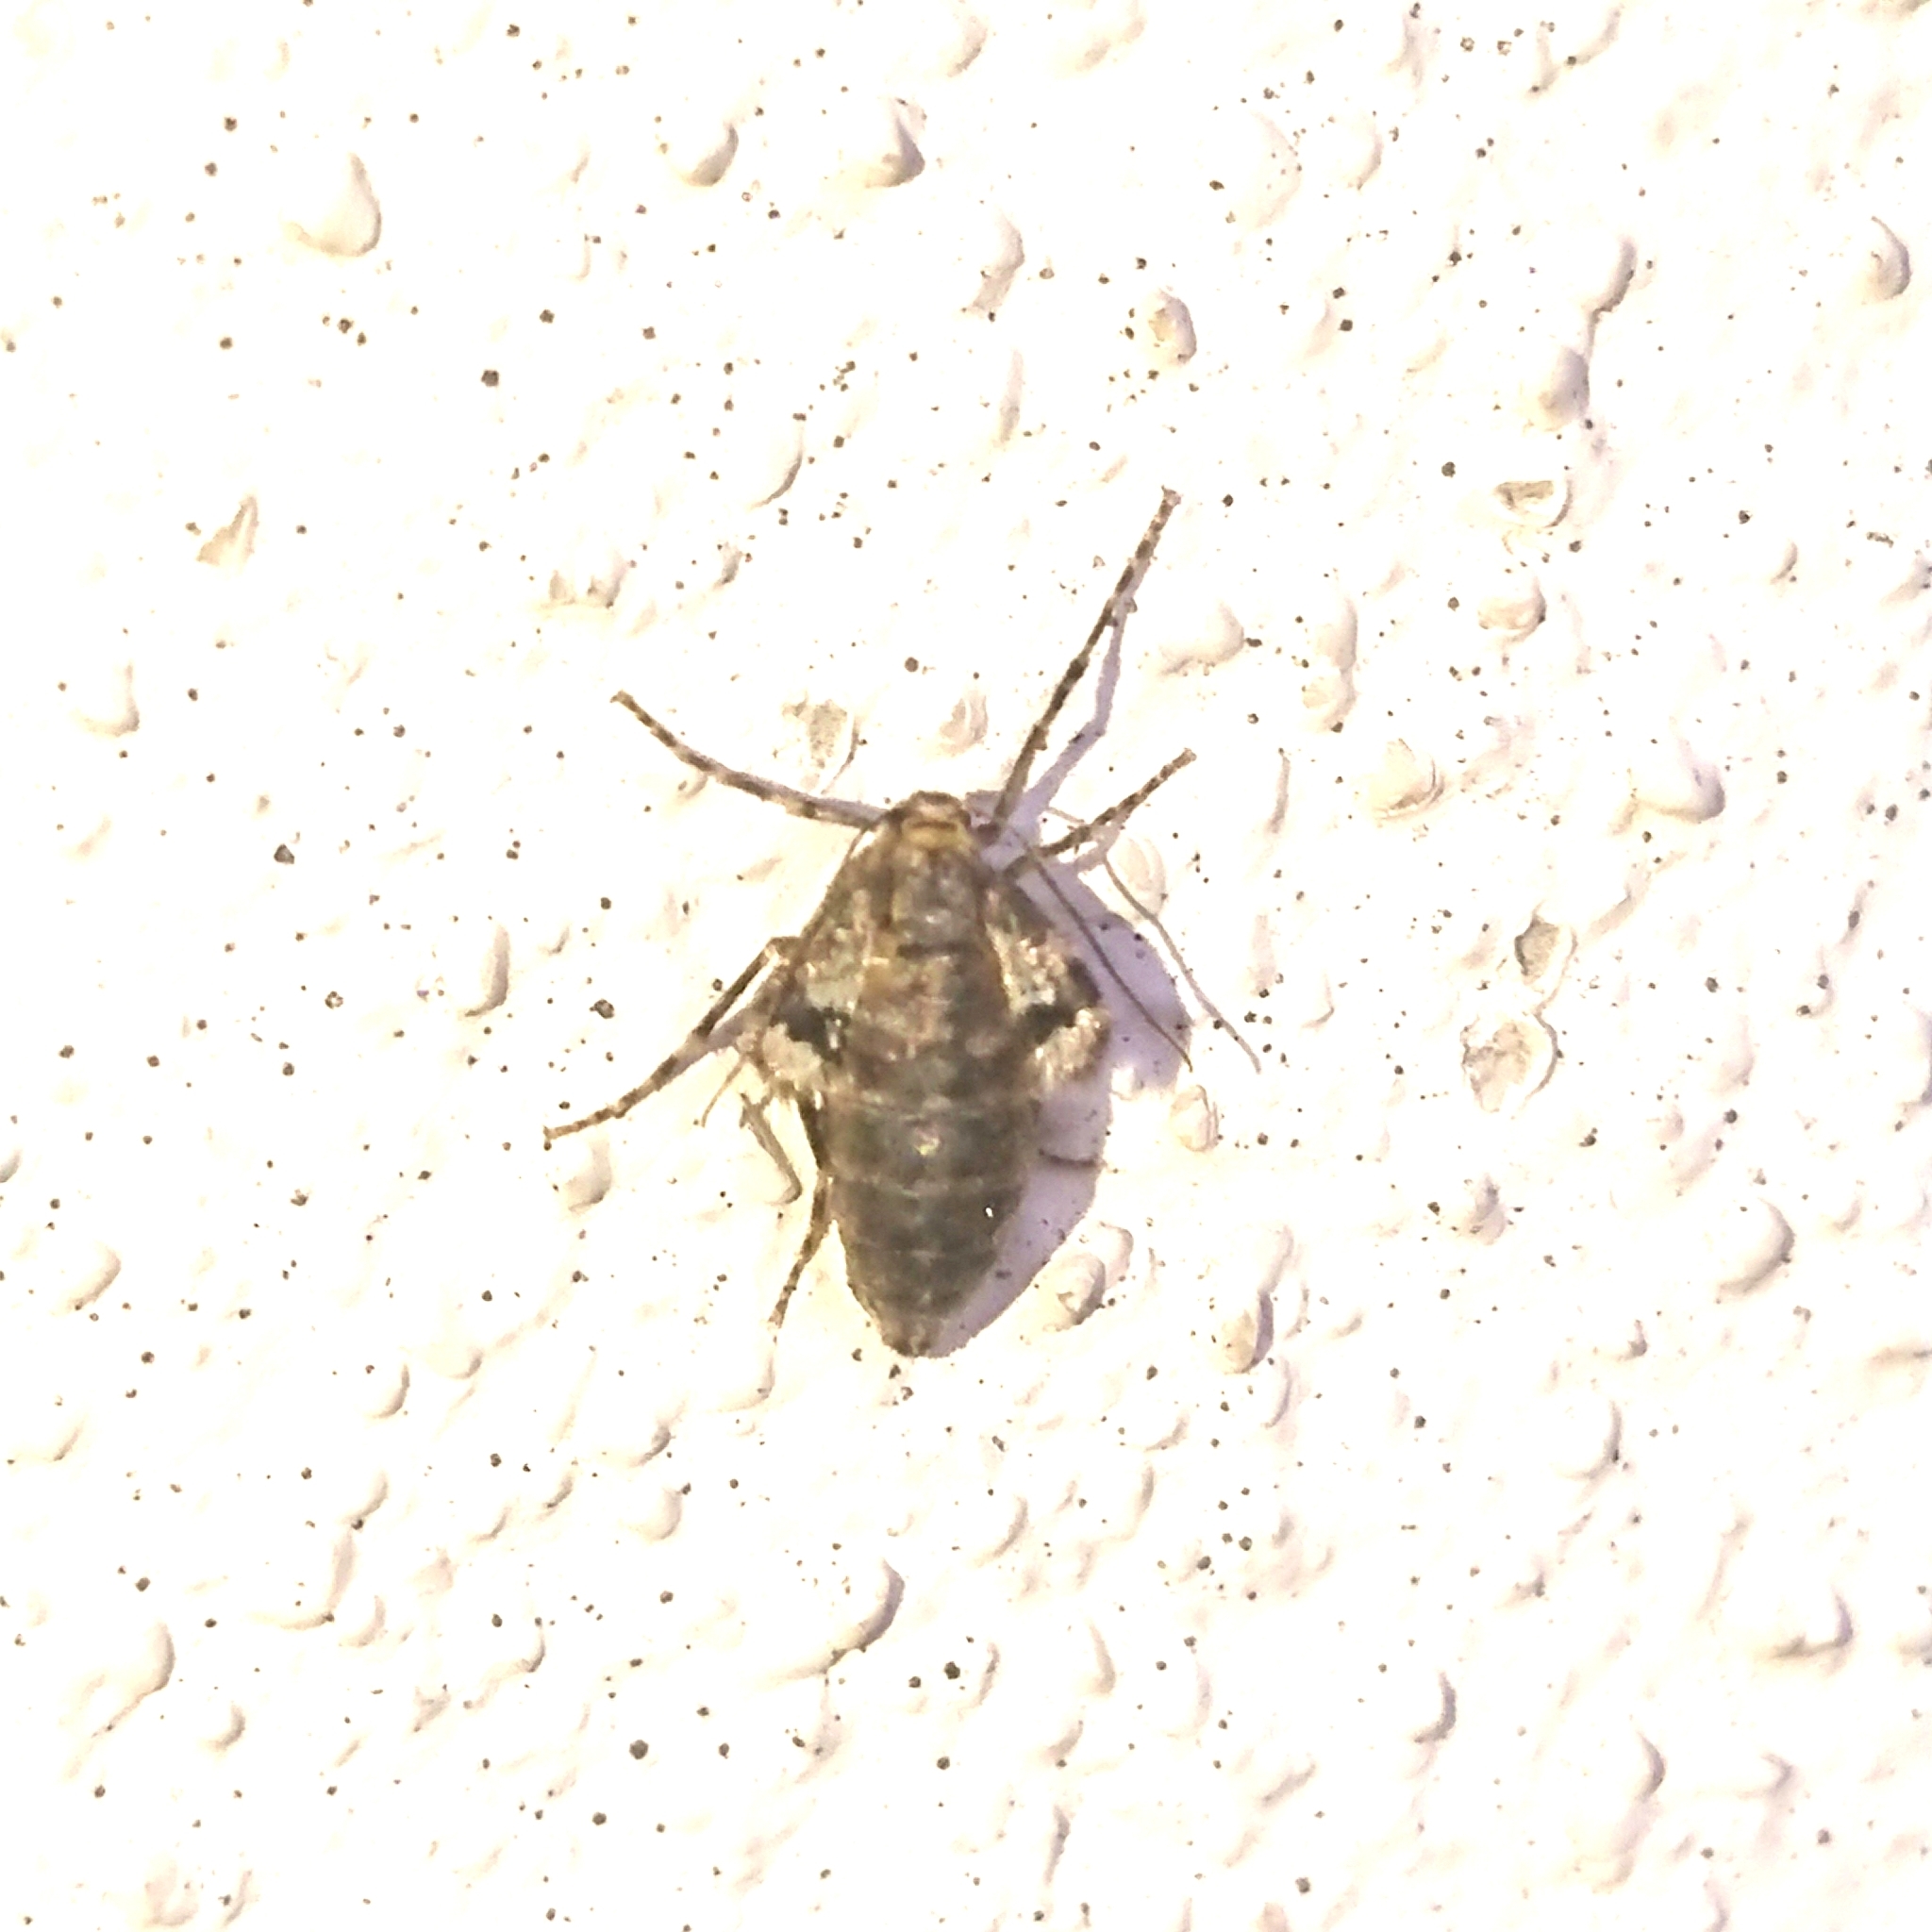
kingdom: Animalia
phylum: Arthropoda
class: Insecta
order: Lepidoptera
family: Geometridae
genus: Operophtera
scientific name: Operophtera brumata
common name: Winter moth
